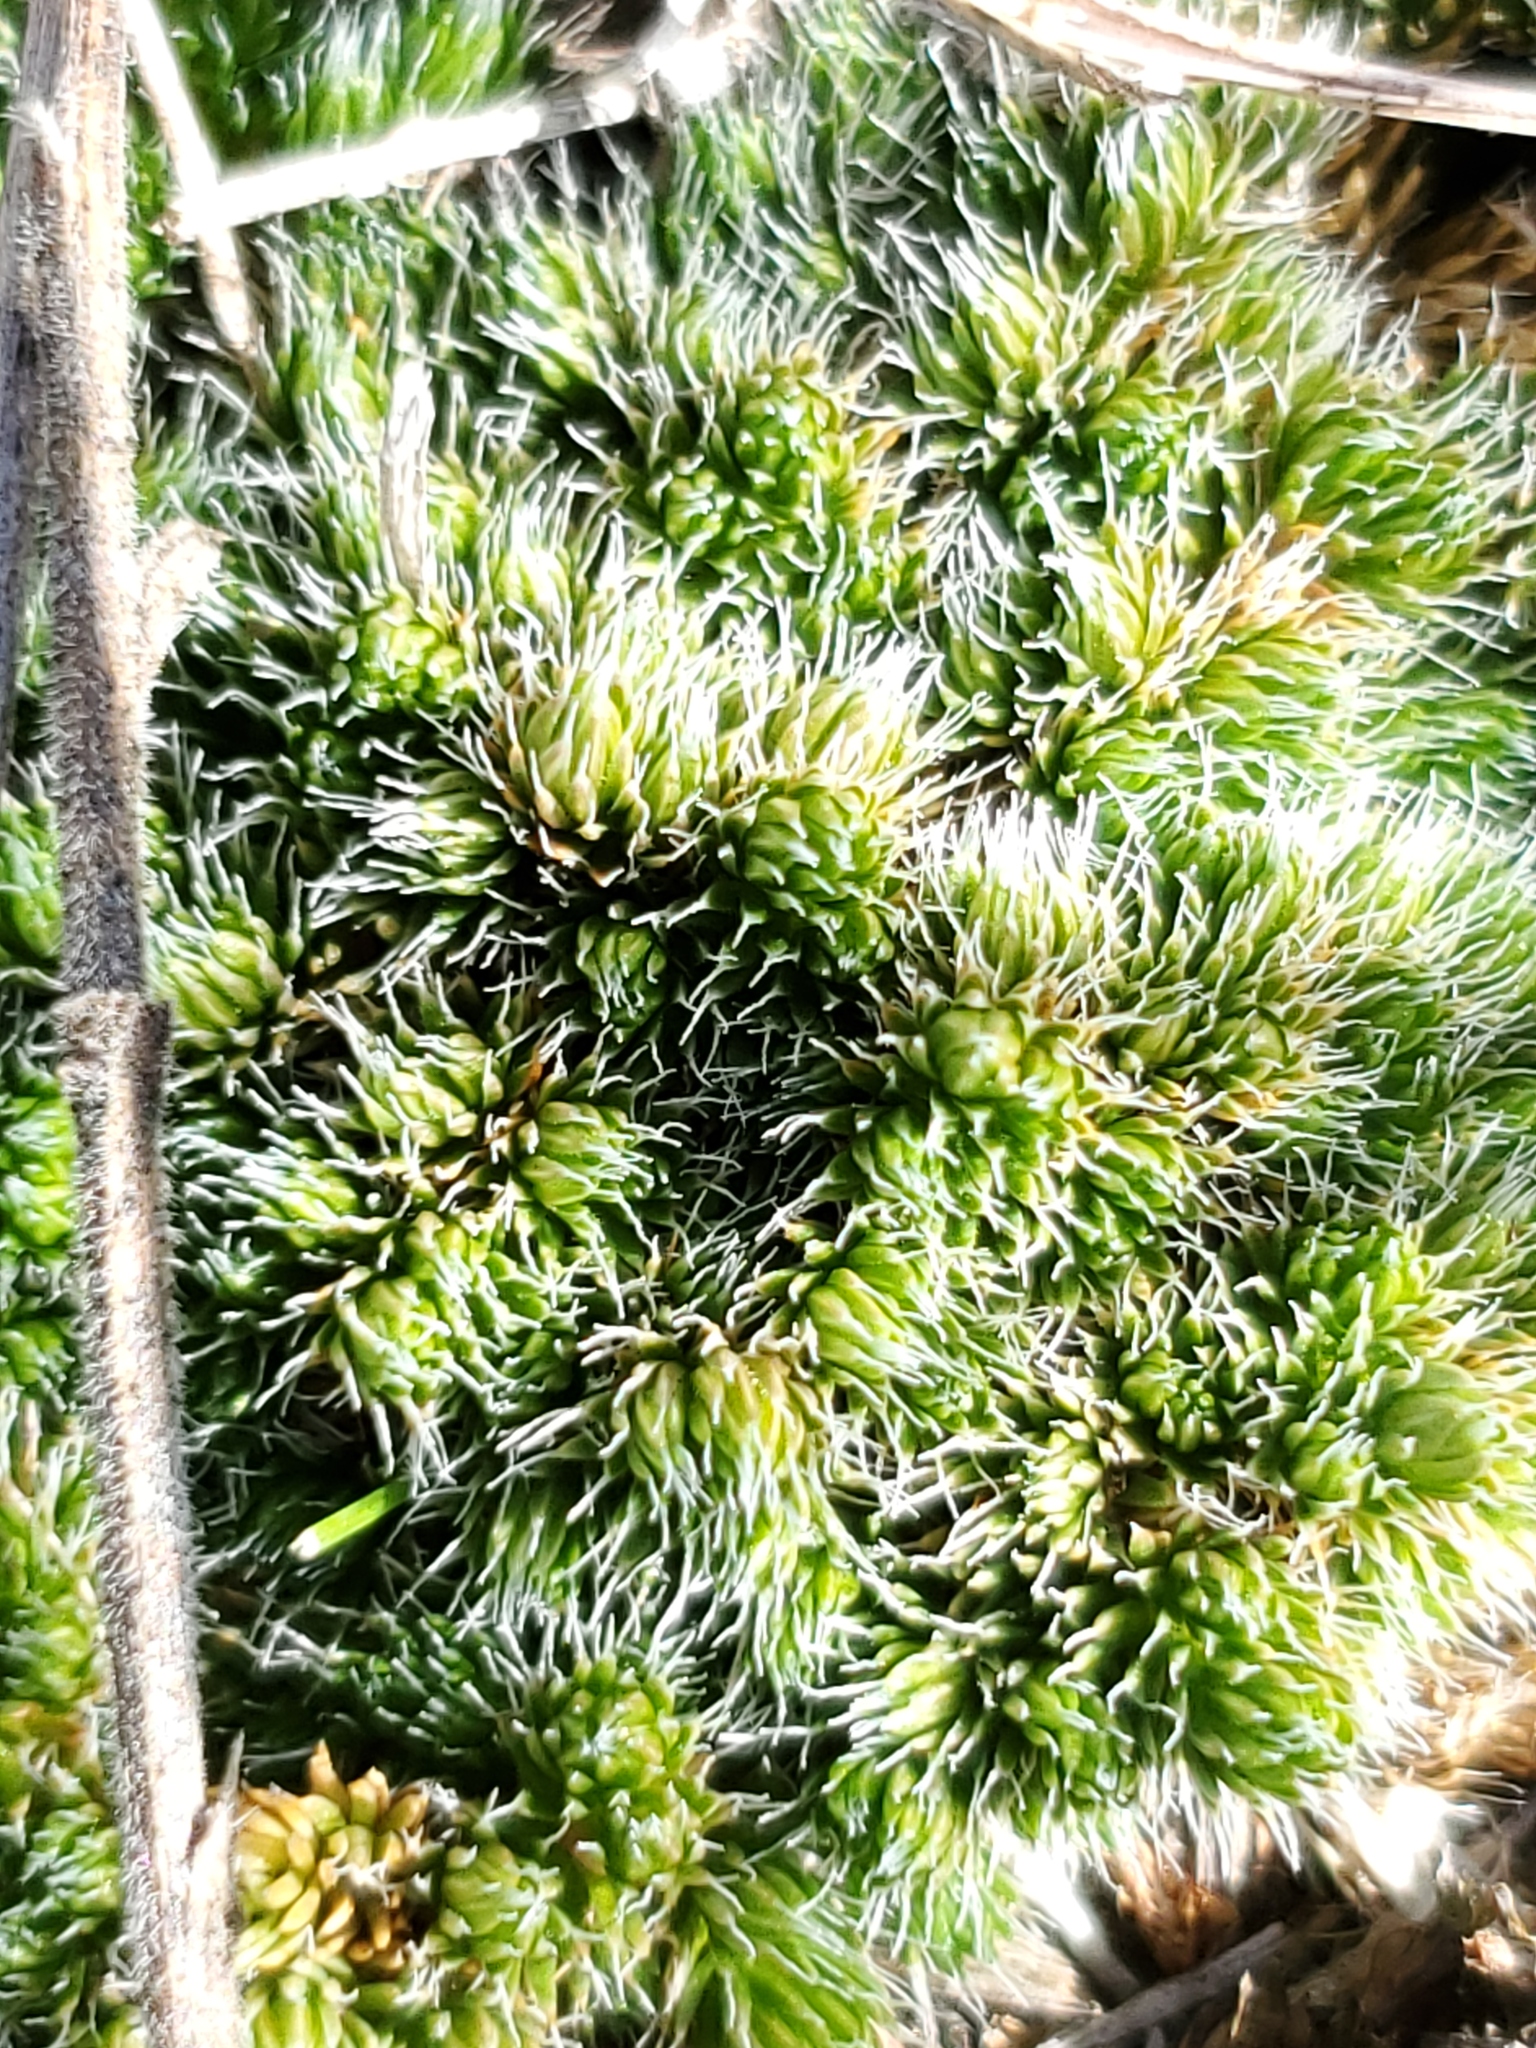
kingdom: Plantae
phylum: Tracheophyta
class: Lycopodiopsida
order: Selaginellales
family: Selaginellaceae
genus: Selaginella
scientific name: Selaginella densa
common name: Mountain spike-moss
